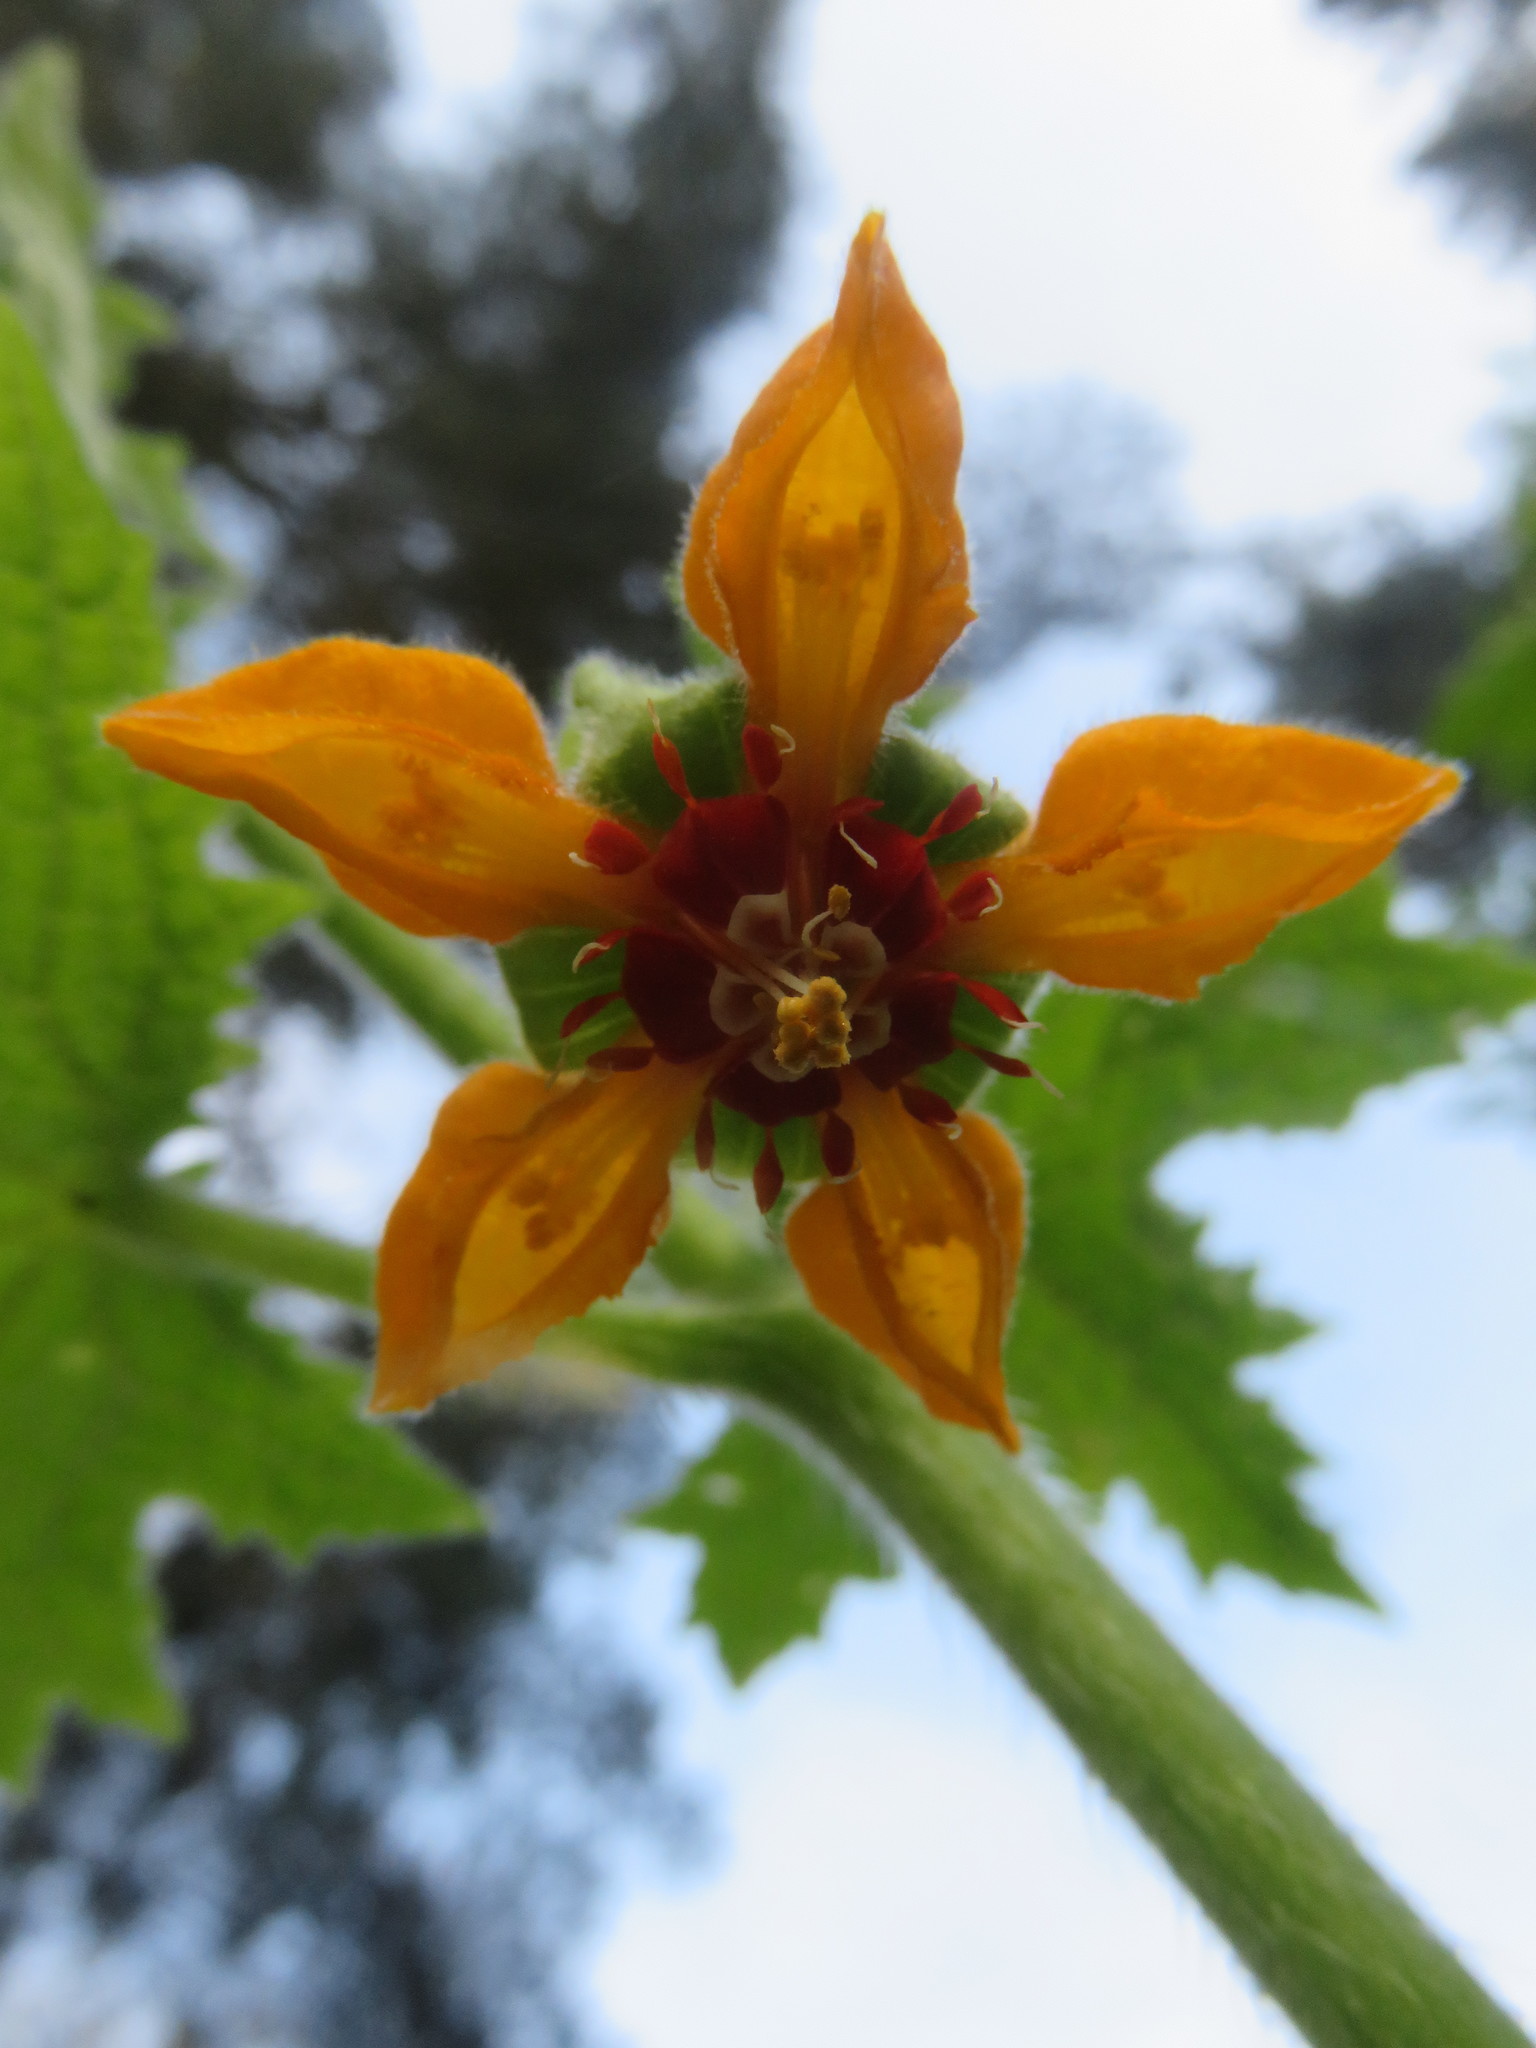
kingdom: Plantae
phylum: Tracheophyta
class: Magnoliopsida
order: Cornales
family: Loasaceae
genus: Loasa
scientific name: Loasa acerifolia
